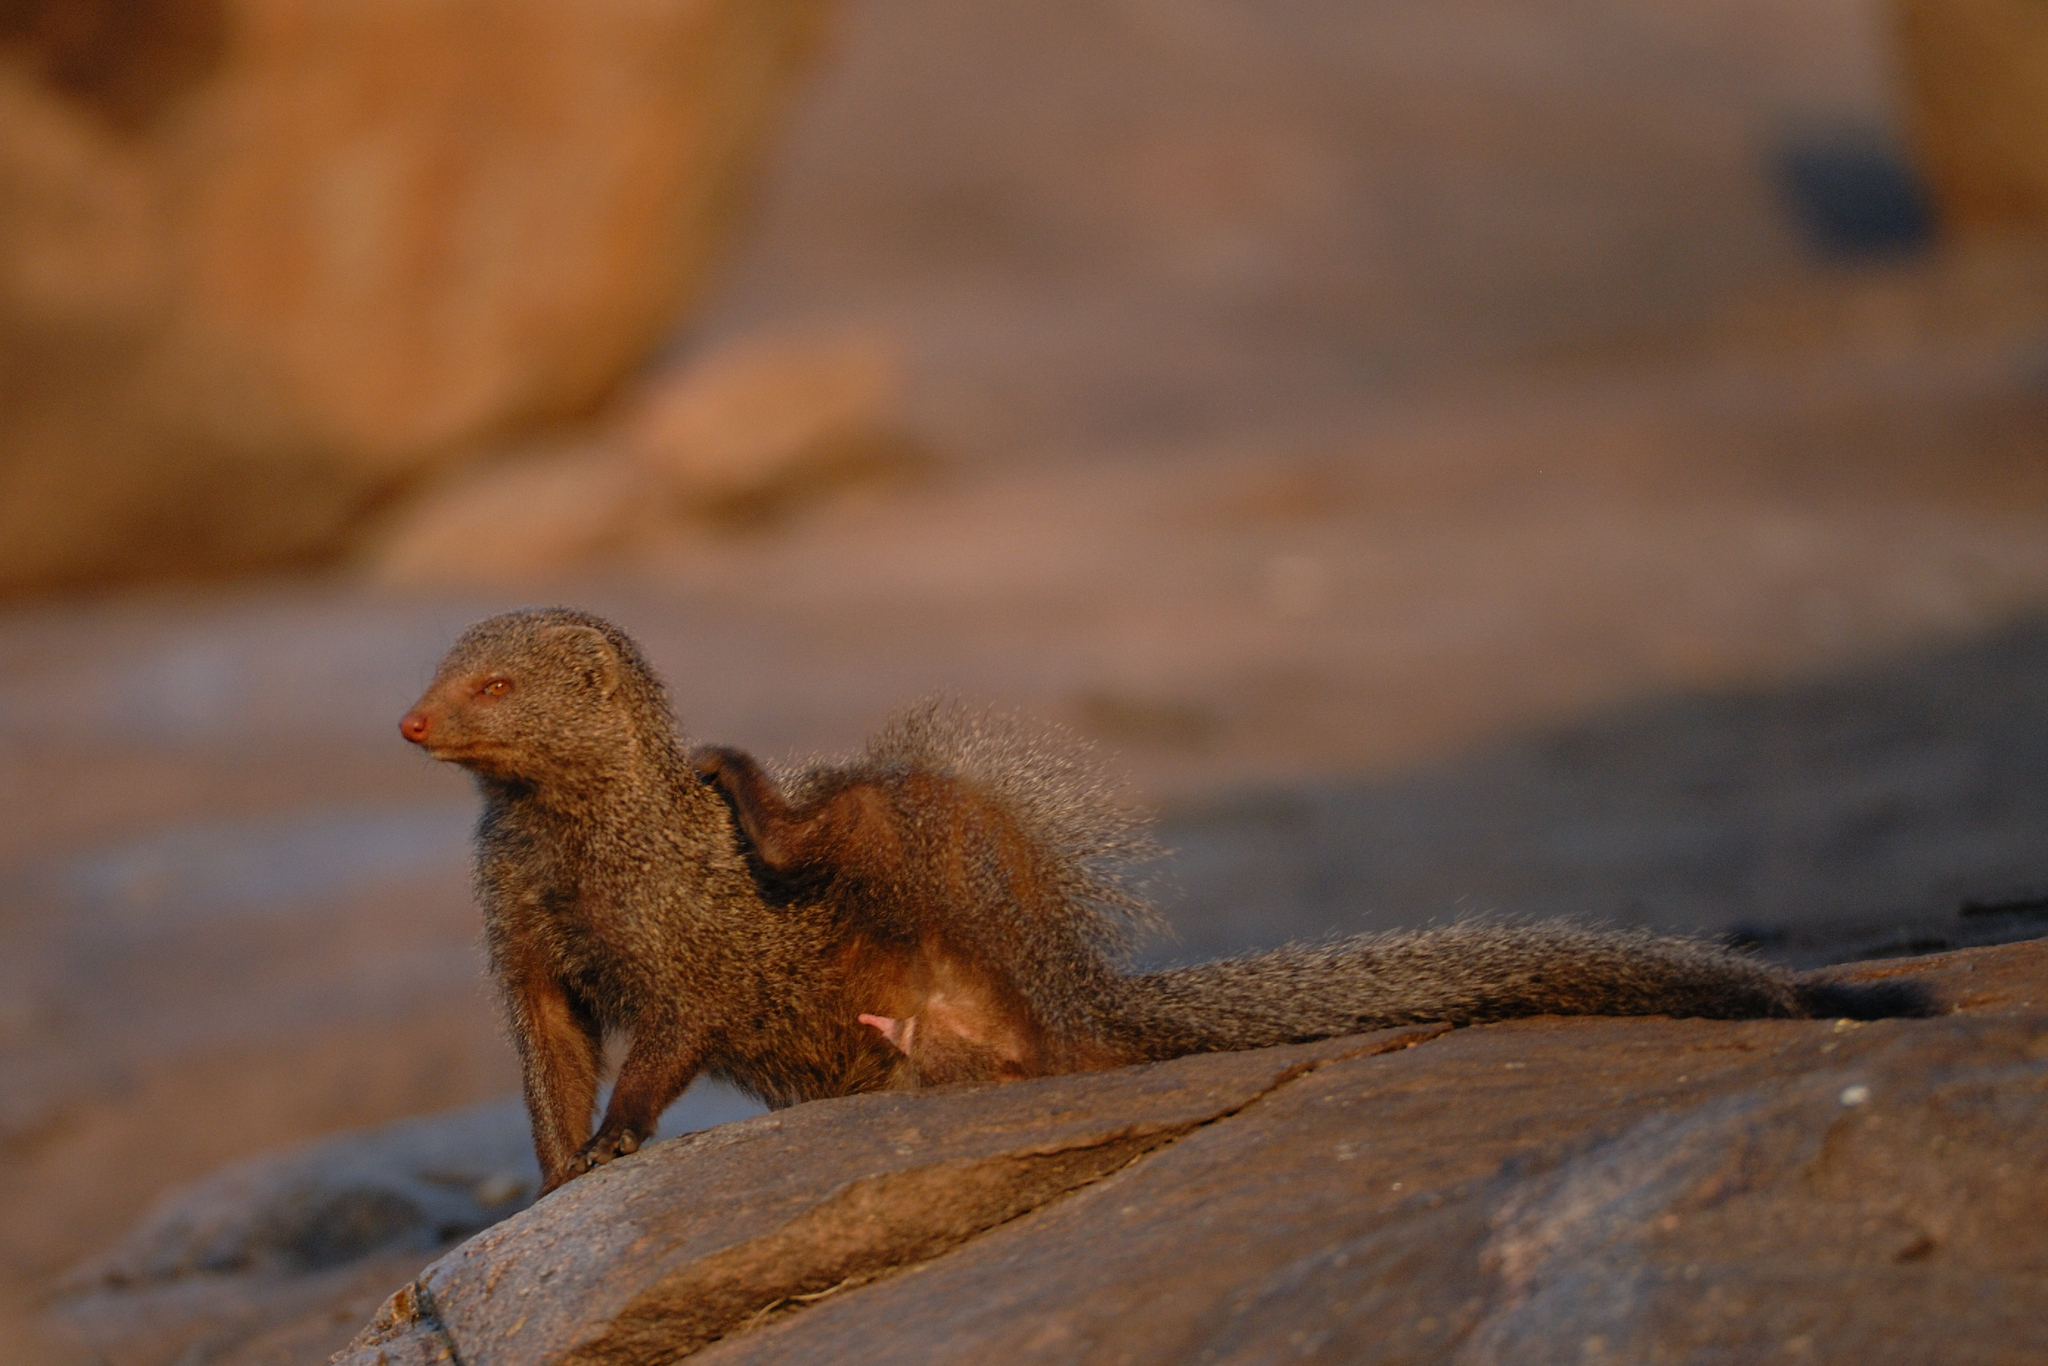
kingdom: Animalia
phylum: Chordata
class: Mammalia
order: Carnivora
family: Herpestidae
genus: Herpestes
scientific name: Herpestes smithii
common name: Ruddy mongoose
